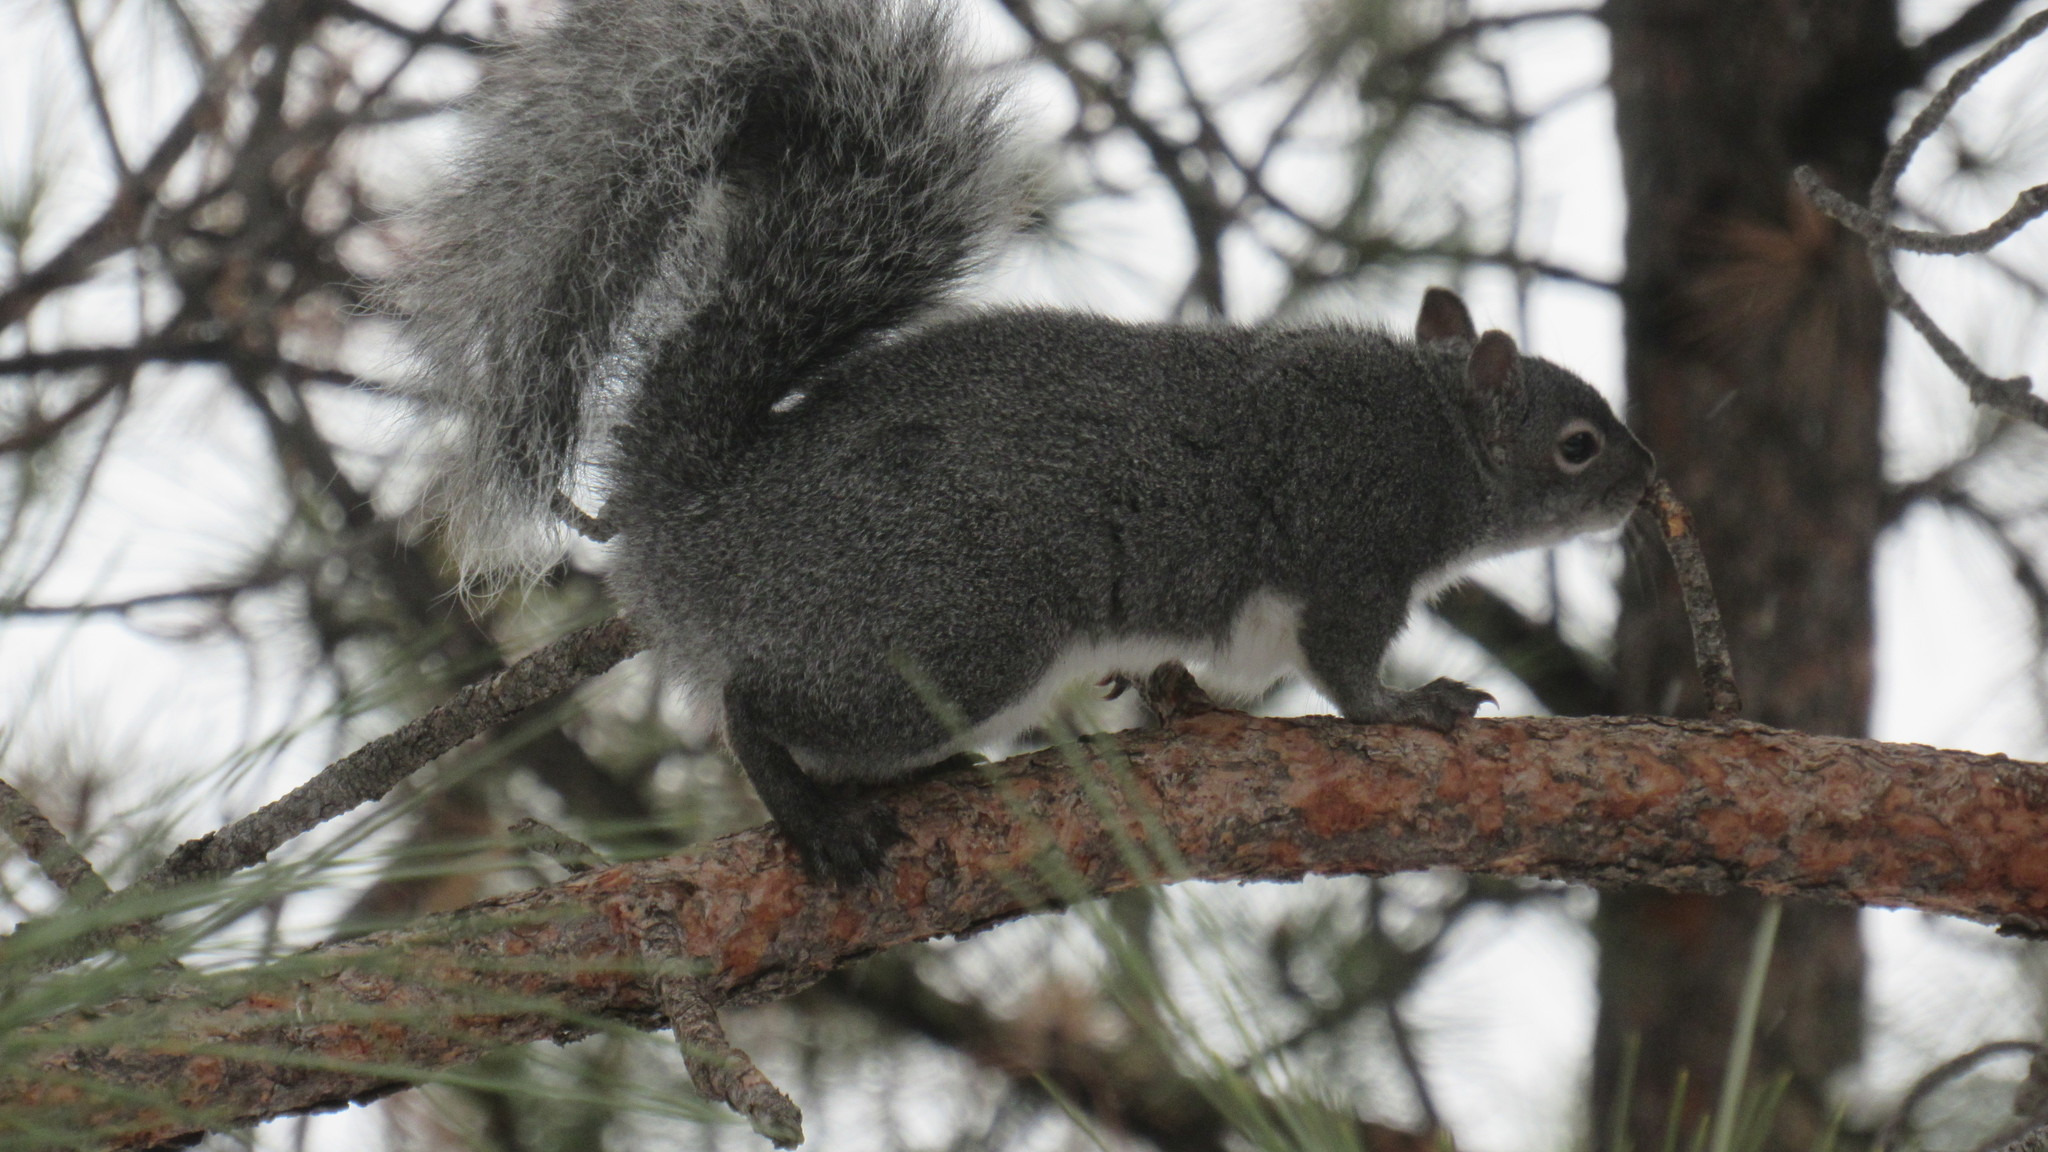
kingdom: Animalia
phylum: Chordata
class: Mammalia
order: Rodentia
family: Sciuridae
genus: Sciurus
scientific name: Sciurus griseus
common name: Western gray squirrel
